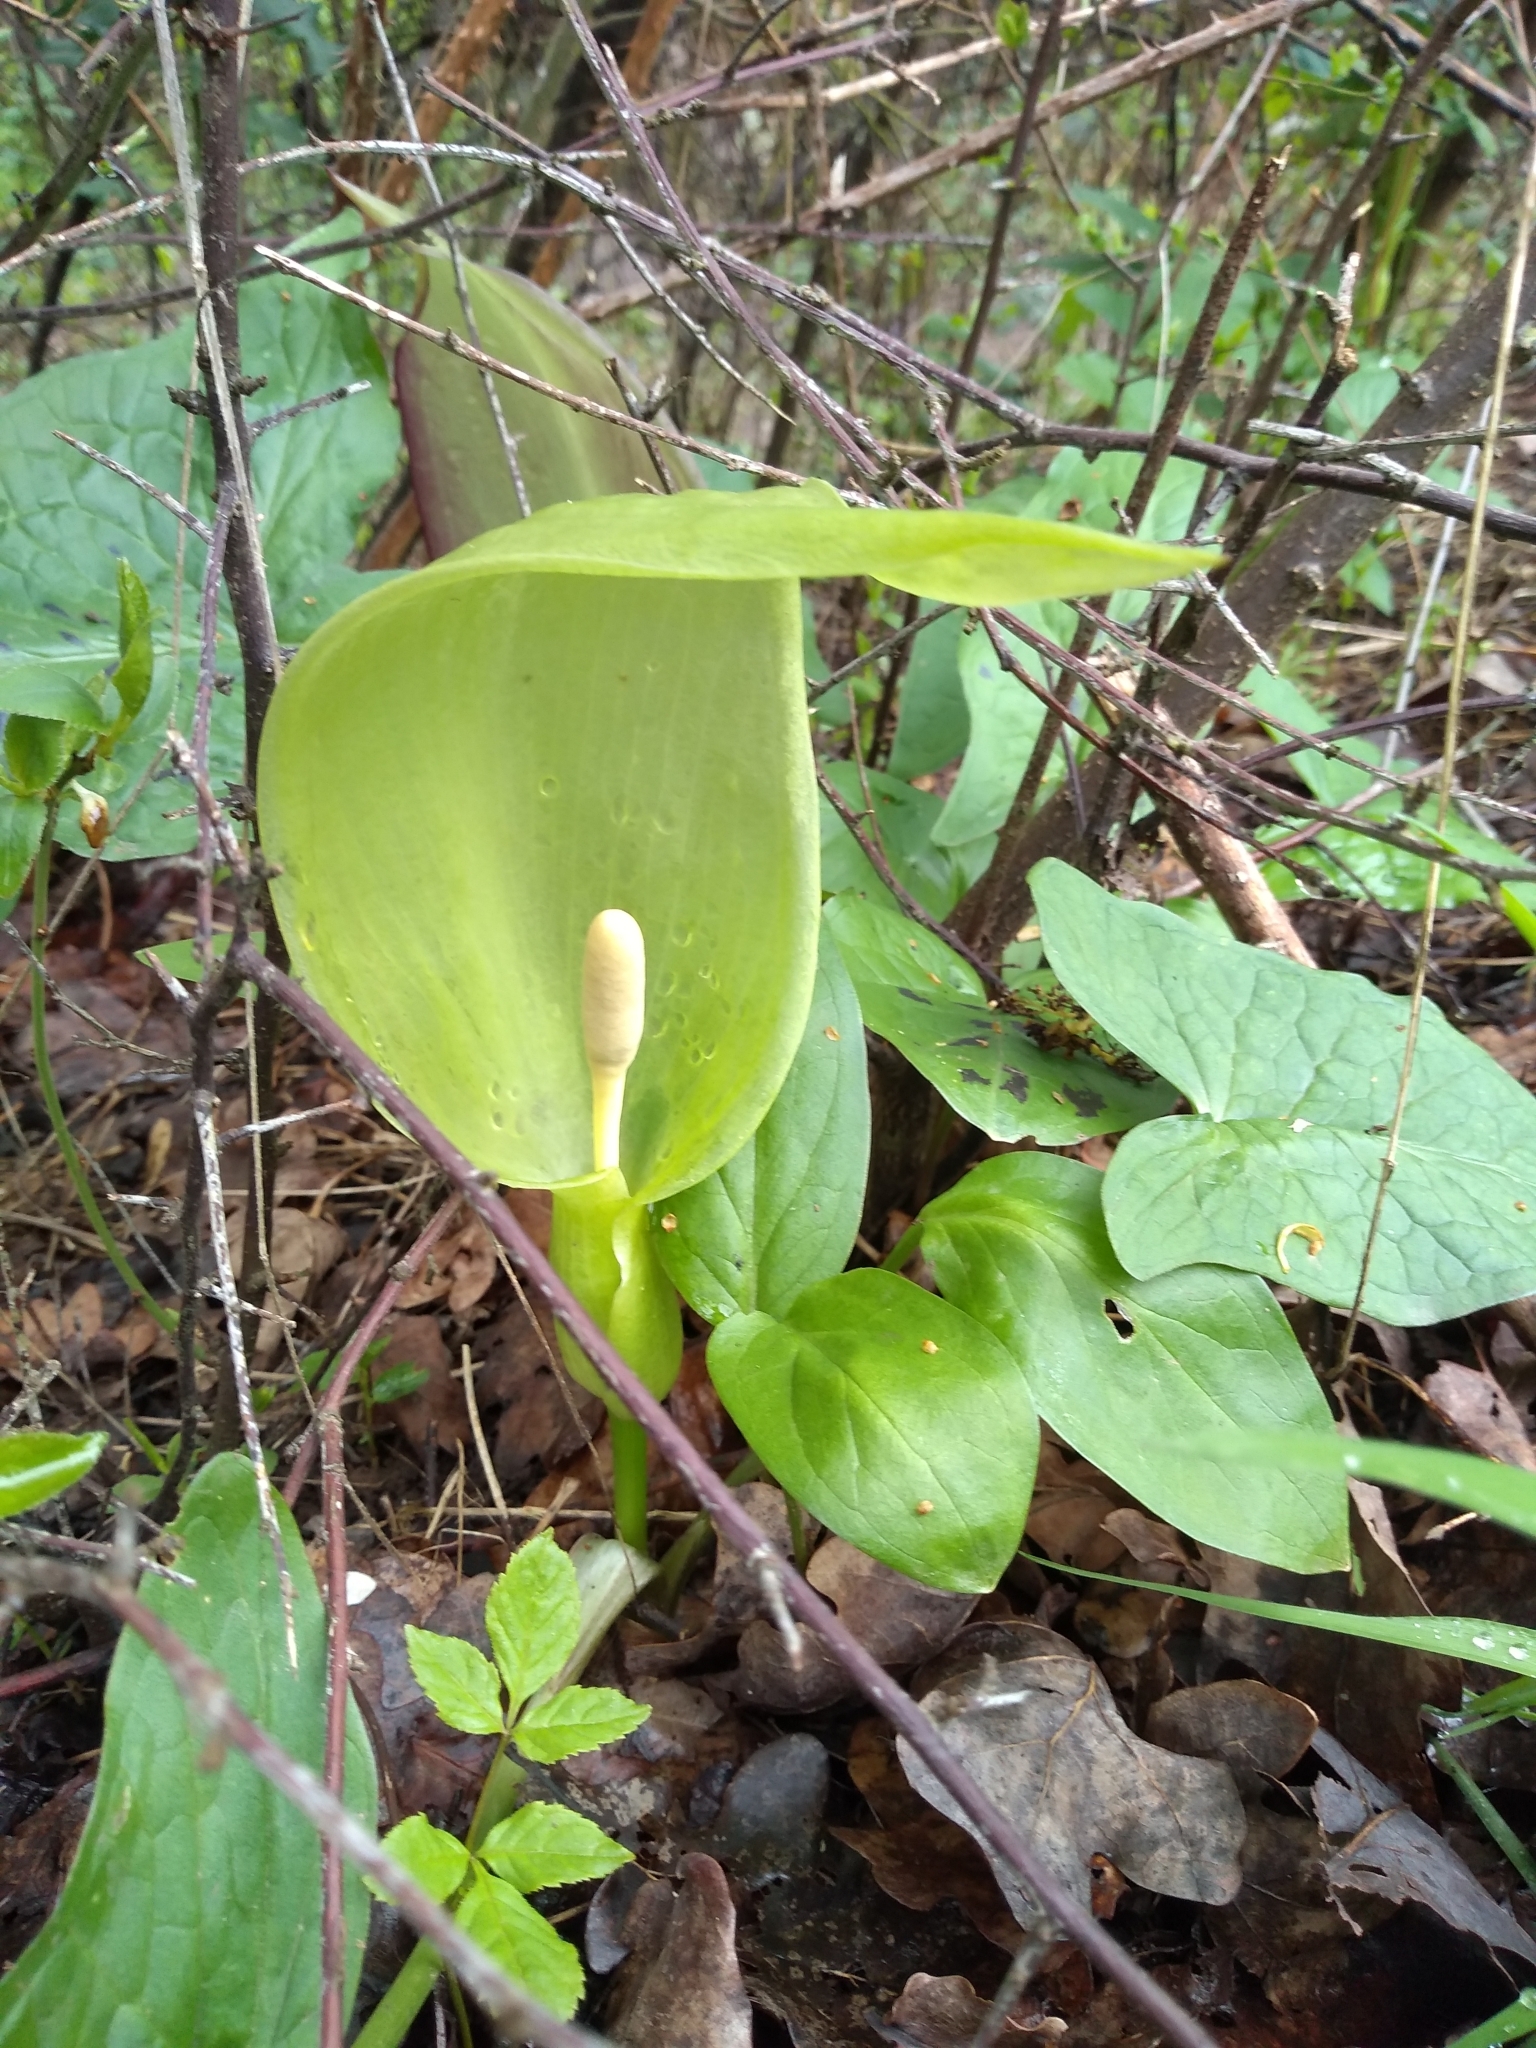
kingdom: Plantae
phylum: Tracheophyta
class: Liliopsida
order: Alismatales
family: Araceae
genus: Arum
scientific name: Arum maculatum
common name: Lords-and-ladies
